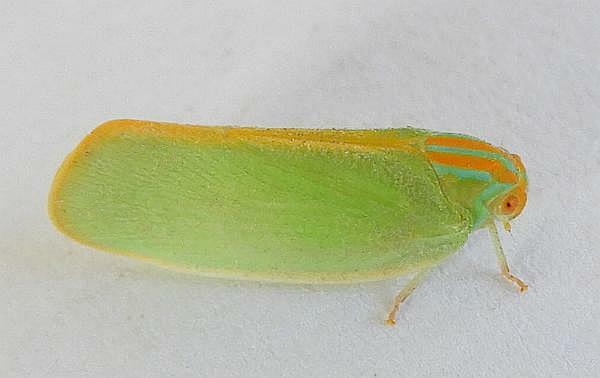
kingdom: Animalia
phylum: Arthropoda
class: Insecta
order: Hemiptera
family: Flatidae
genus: Ormenaria
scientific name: Ormenaria rufifascia
